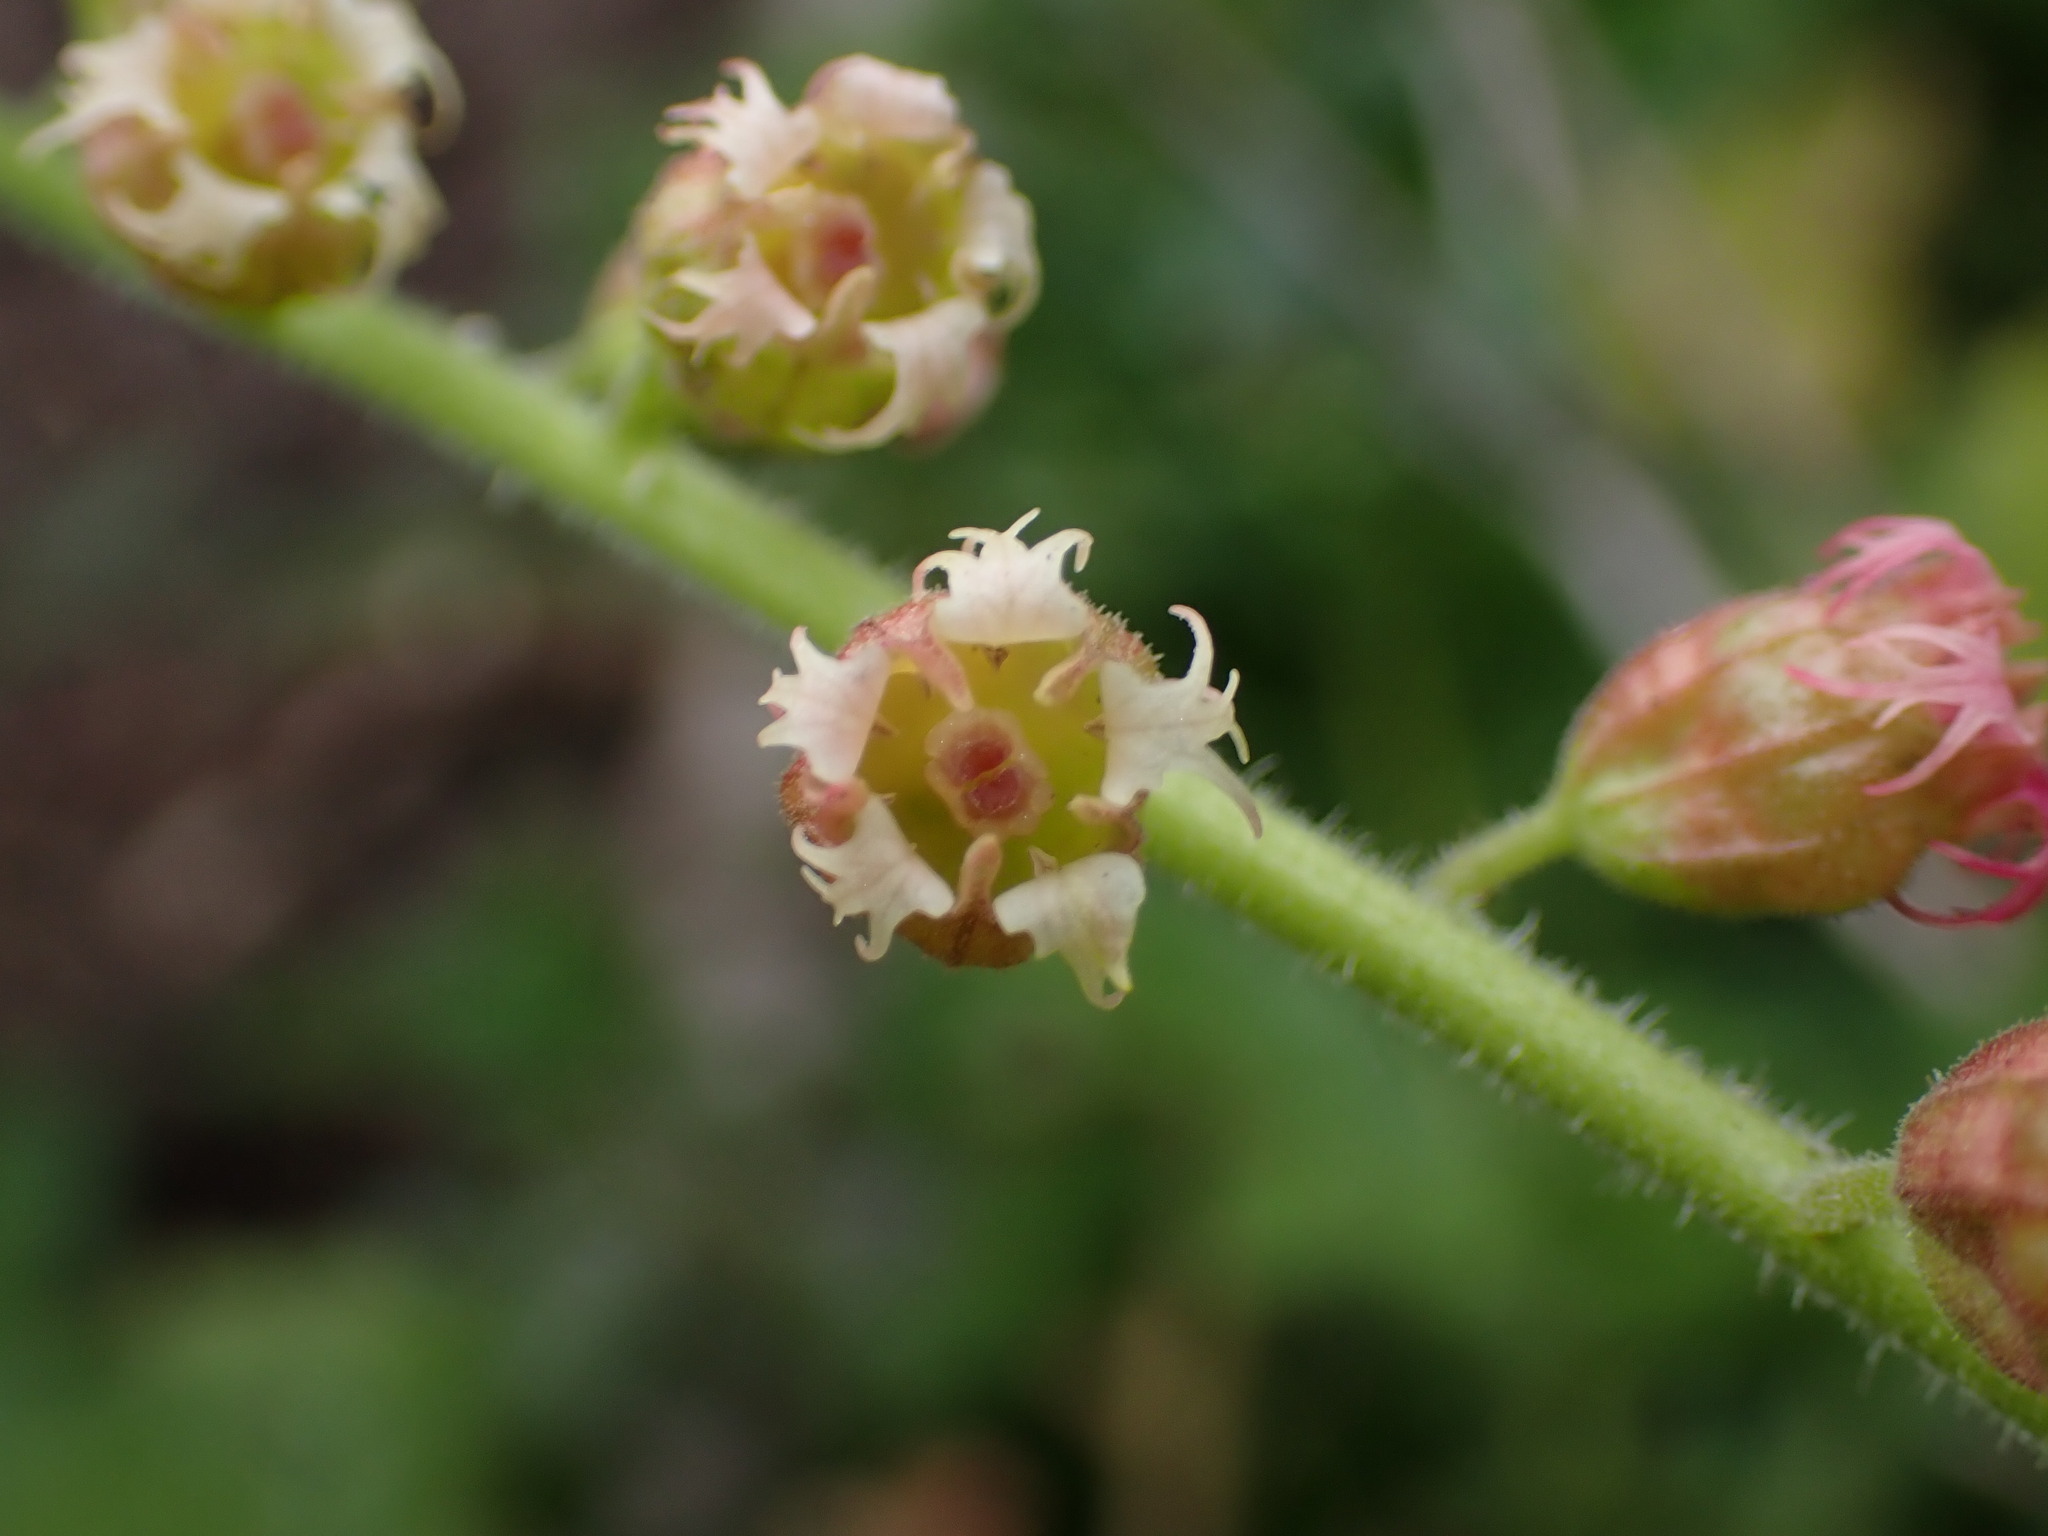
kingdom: Plantae
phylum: Tracheophyta
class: Magnoliopsida
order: Saxifragales
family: Saxifragaceae
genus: Tellima
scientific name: Tellima grandiflora
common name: Fringecups
